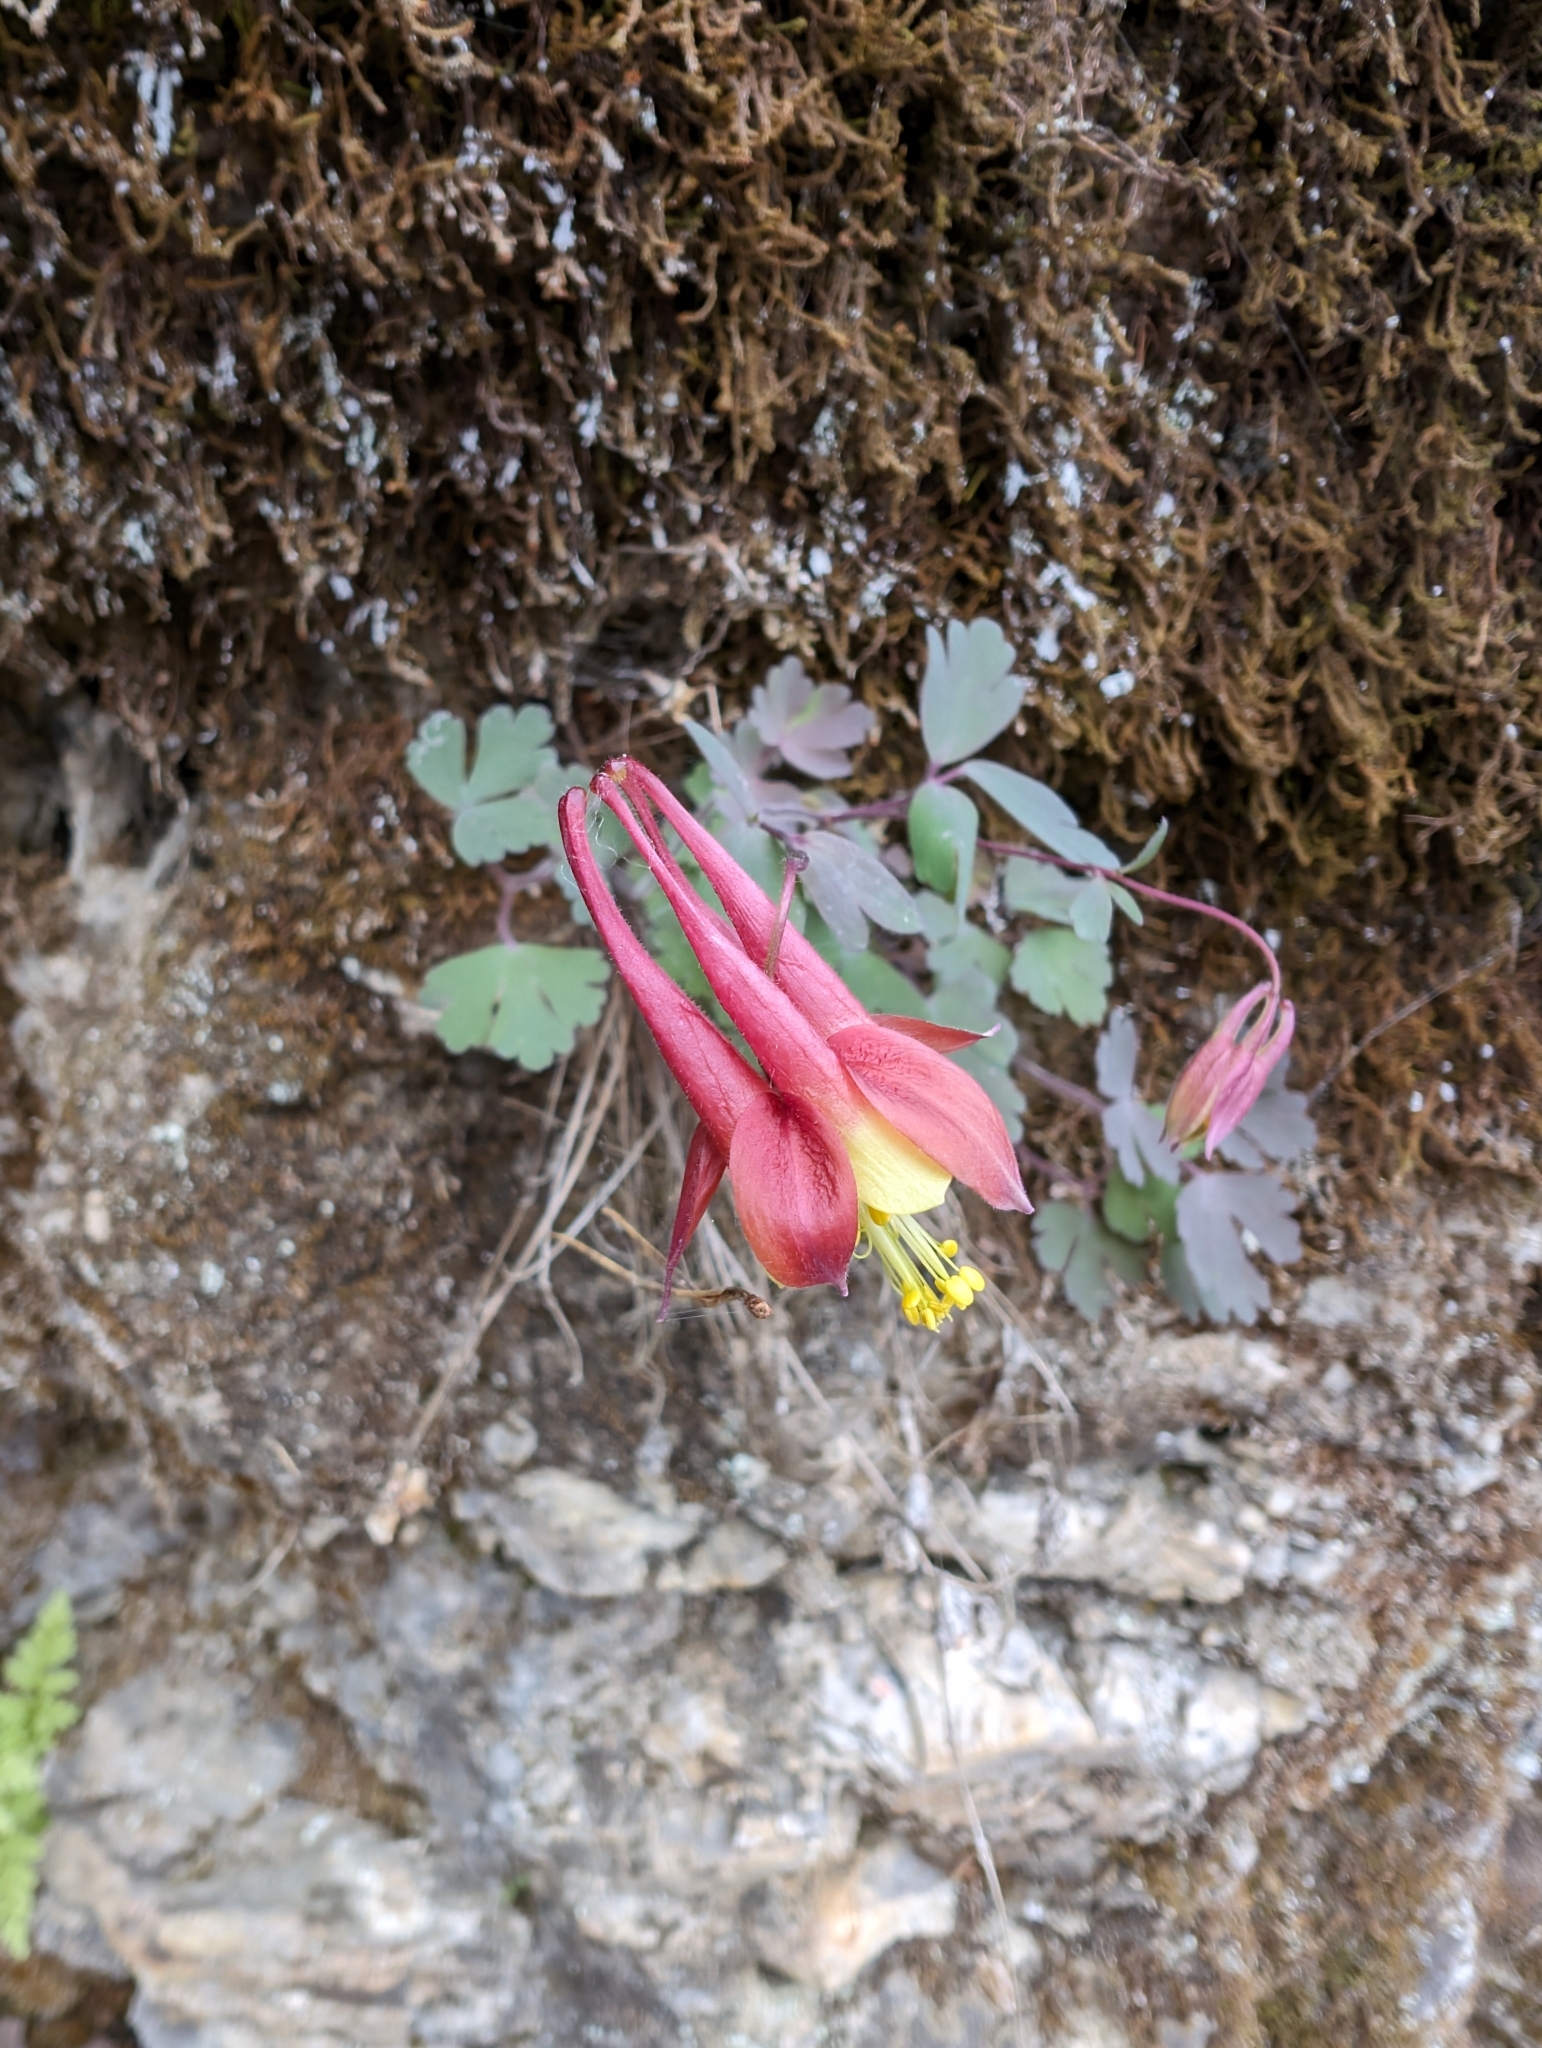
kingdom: Plantae
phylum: Tracheophyta
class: Magnoliopsida
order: Ranunculales
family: Ranunculaceae
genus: Aquilegia
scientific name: Aquilegia canadensis
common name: American columbine
